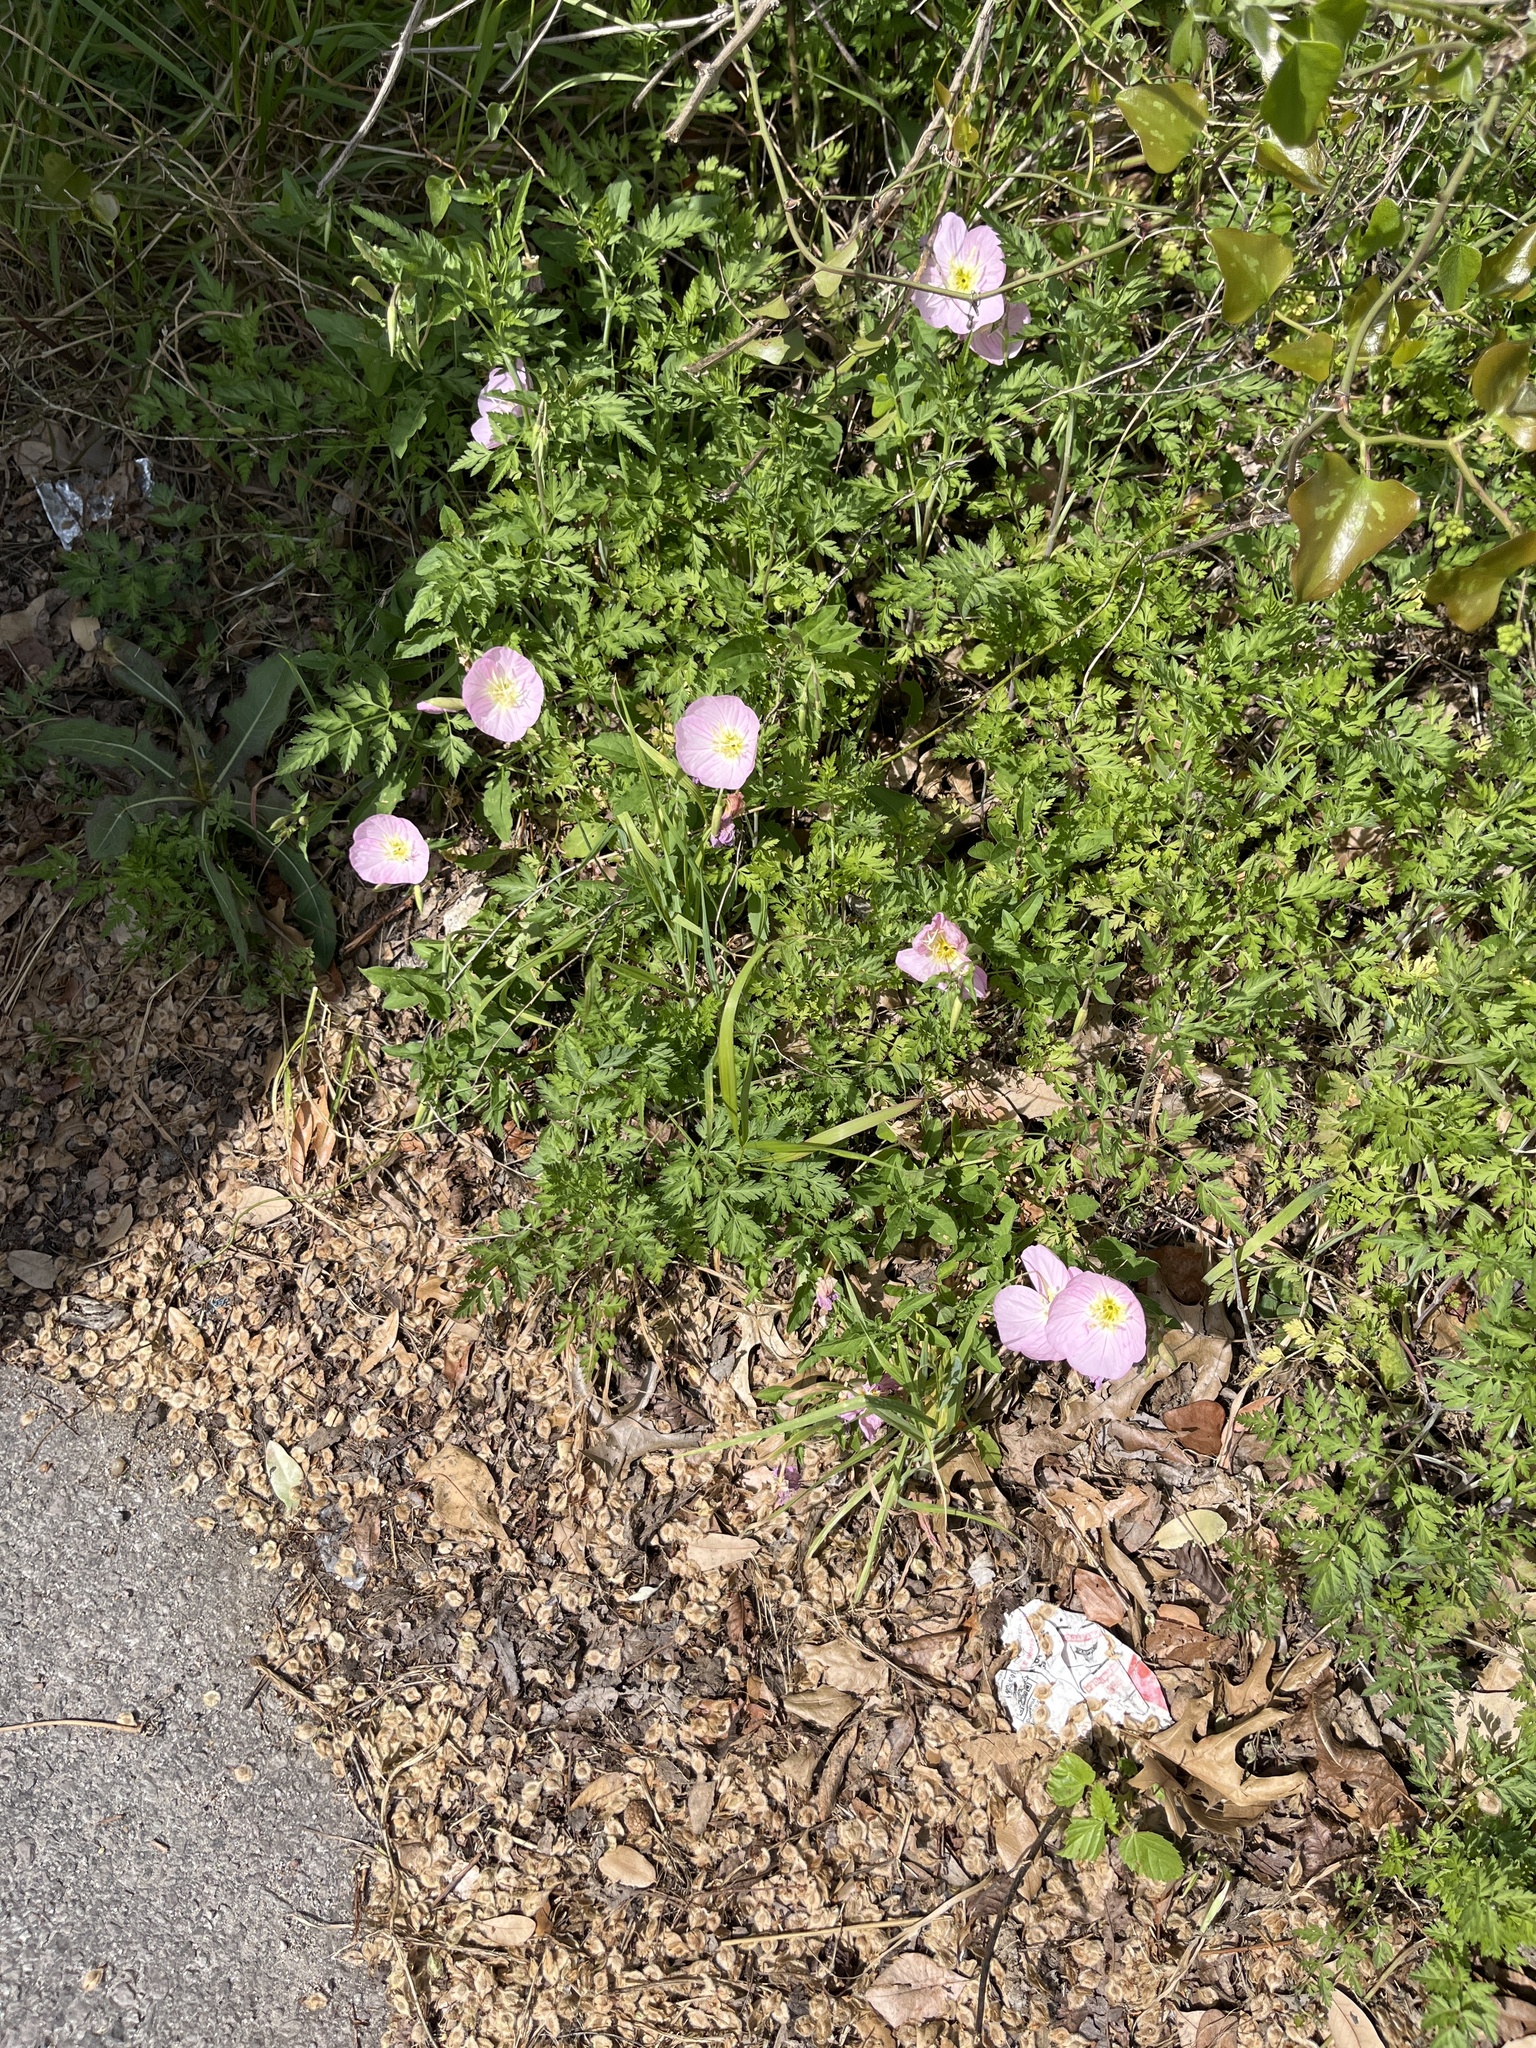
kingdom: Plantae
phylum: Tracheophyta
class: Magnoliopsida
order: Myrtales
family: Onagraceae
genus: Oenothera
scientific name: Oenothera speciosa
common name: White evening-primrose
